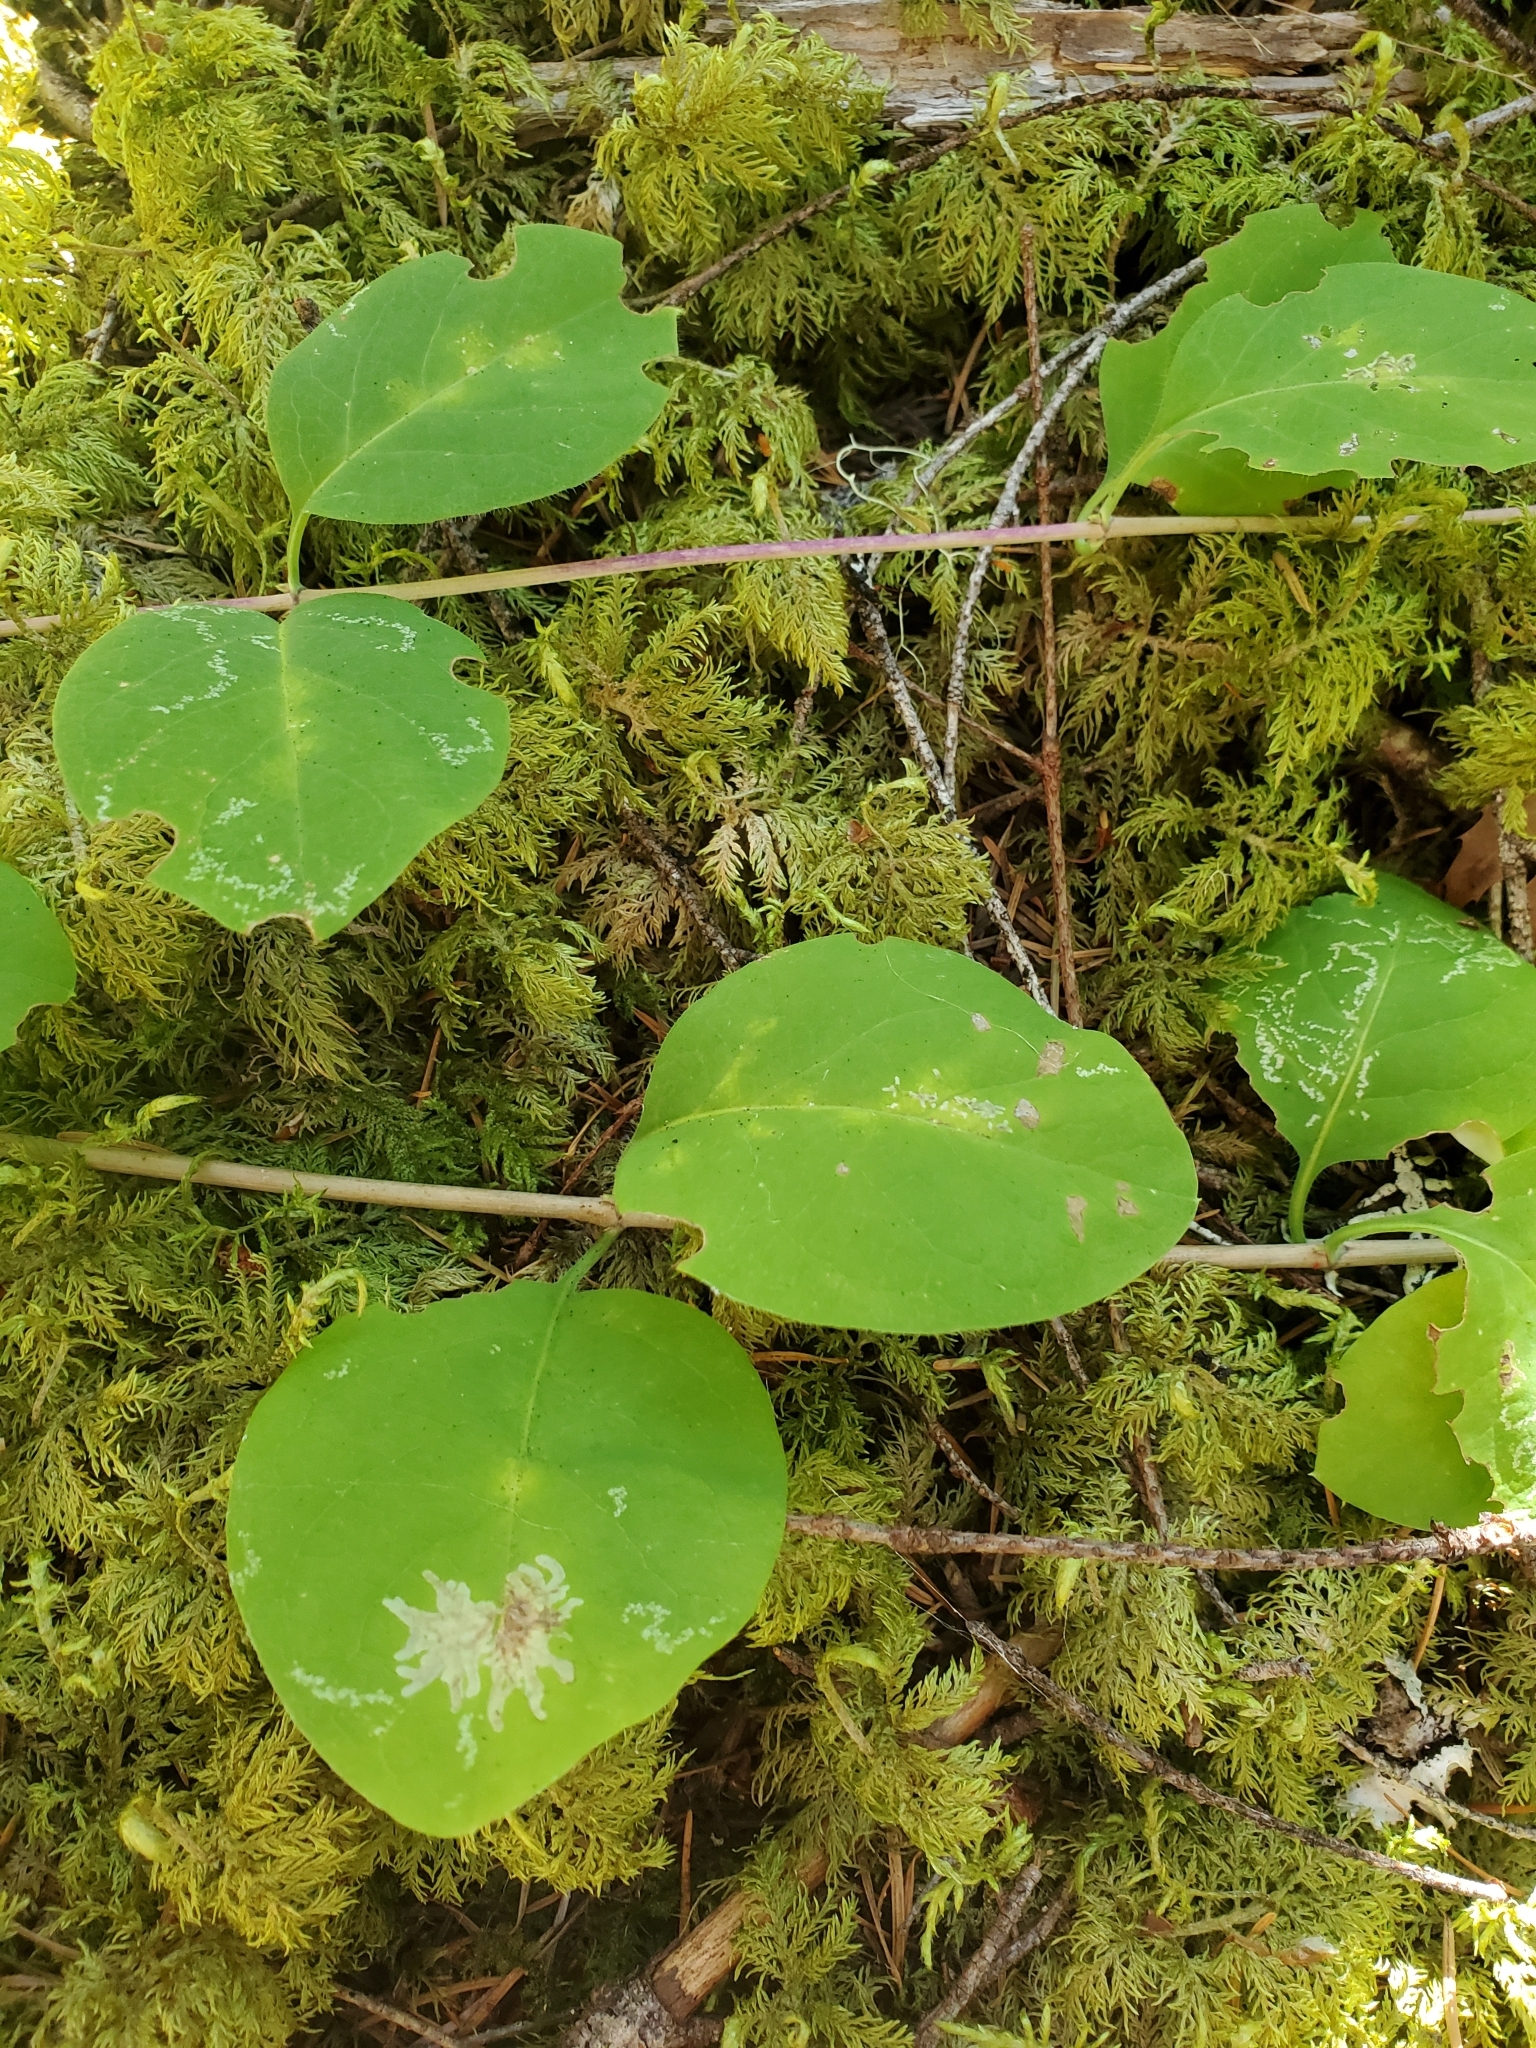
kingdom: Plantae
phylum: Tracheophyta
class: Magnoliopsida
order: Dipsacales
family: Caprifoliaceae
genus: Lonicera
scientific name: Lonicera ciliosa
